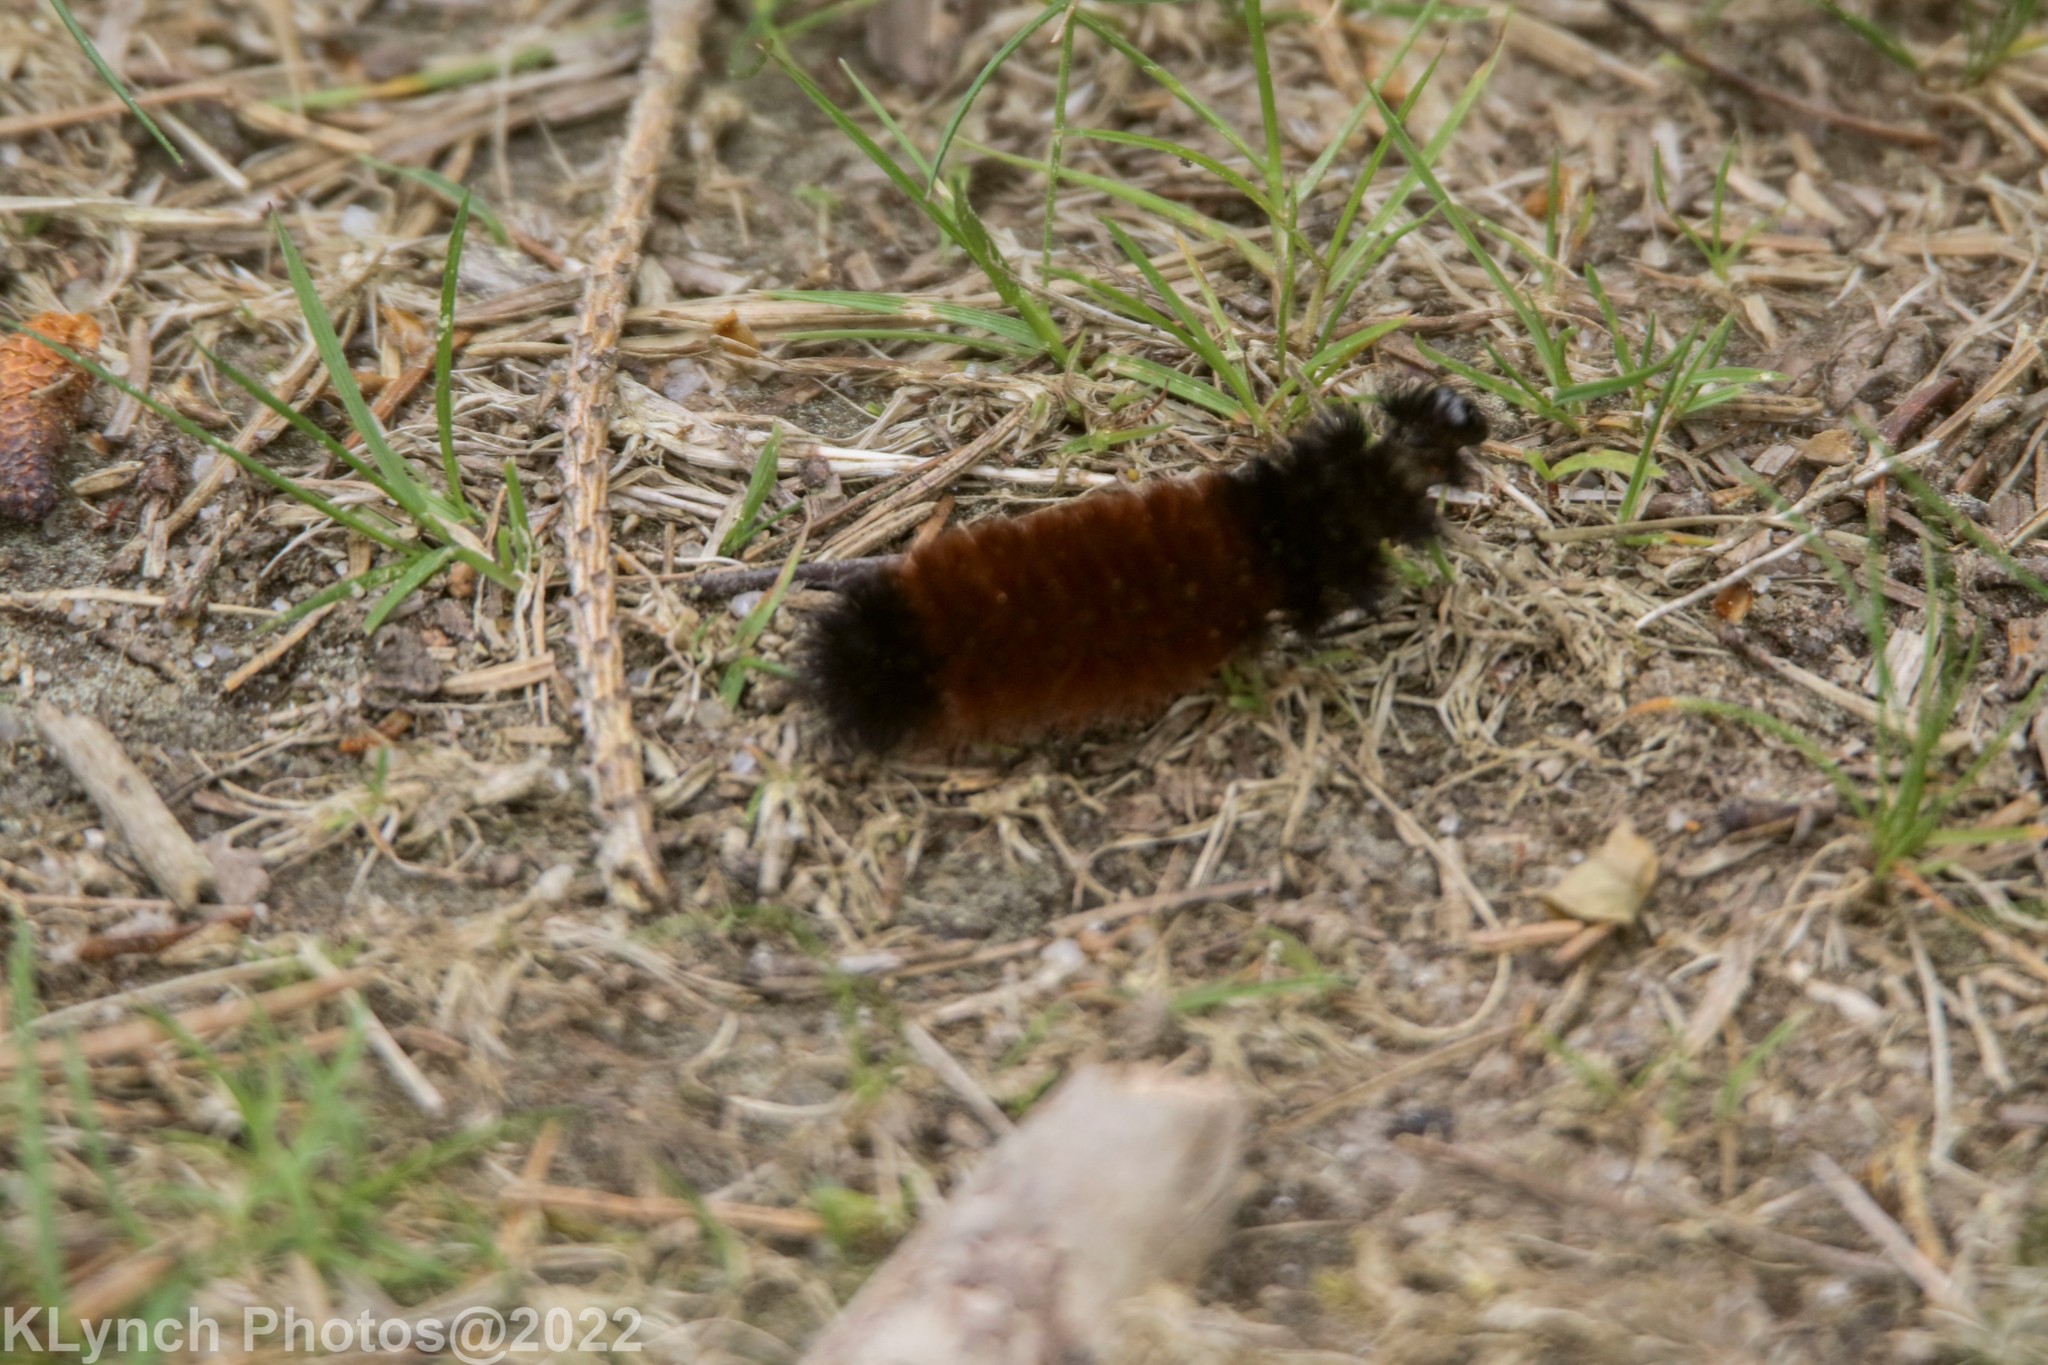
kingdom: Animalia
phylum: Arthropoda
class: Insecta
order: Lepidoptera
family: Erebidae
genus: Pyrrharctia
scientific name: Pyrrharctia isabella
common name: Isabella tiger moth
